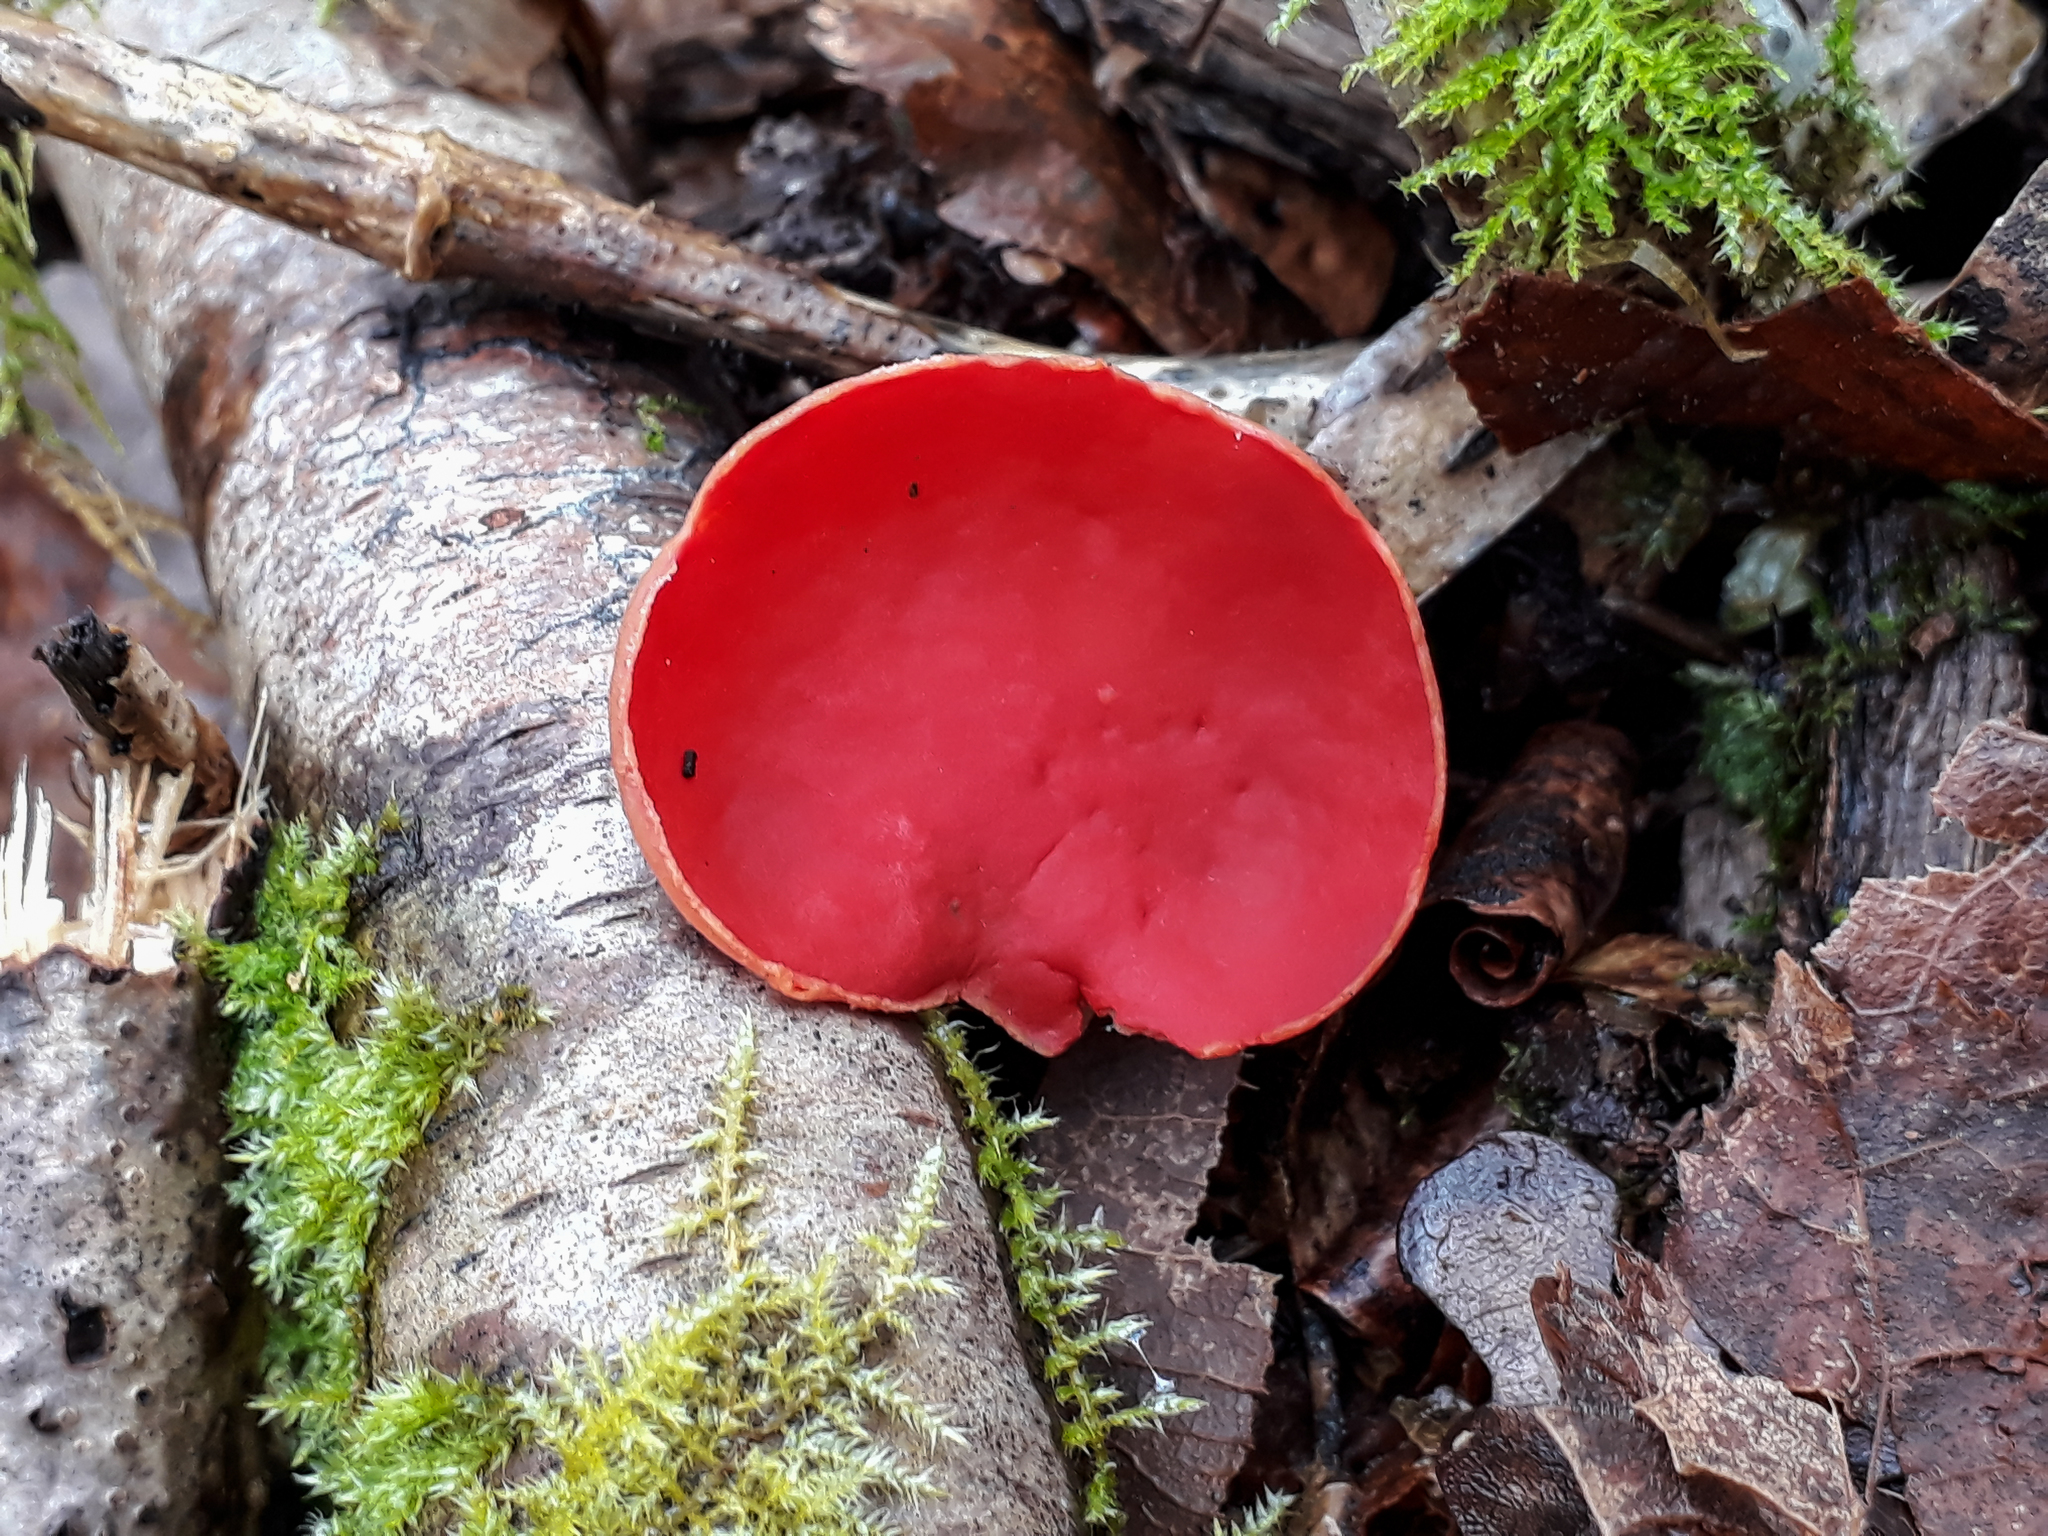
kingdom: Fungi
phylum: Ascomycota
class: Pezizomycetes
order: Pezizales
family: Sarcoscyphaceae
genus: Sarcoscypha
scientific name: Sarcoscypha
